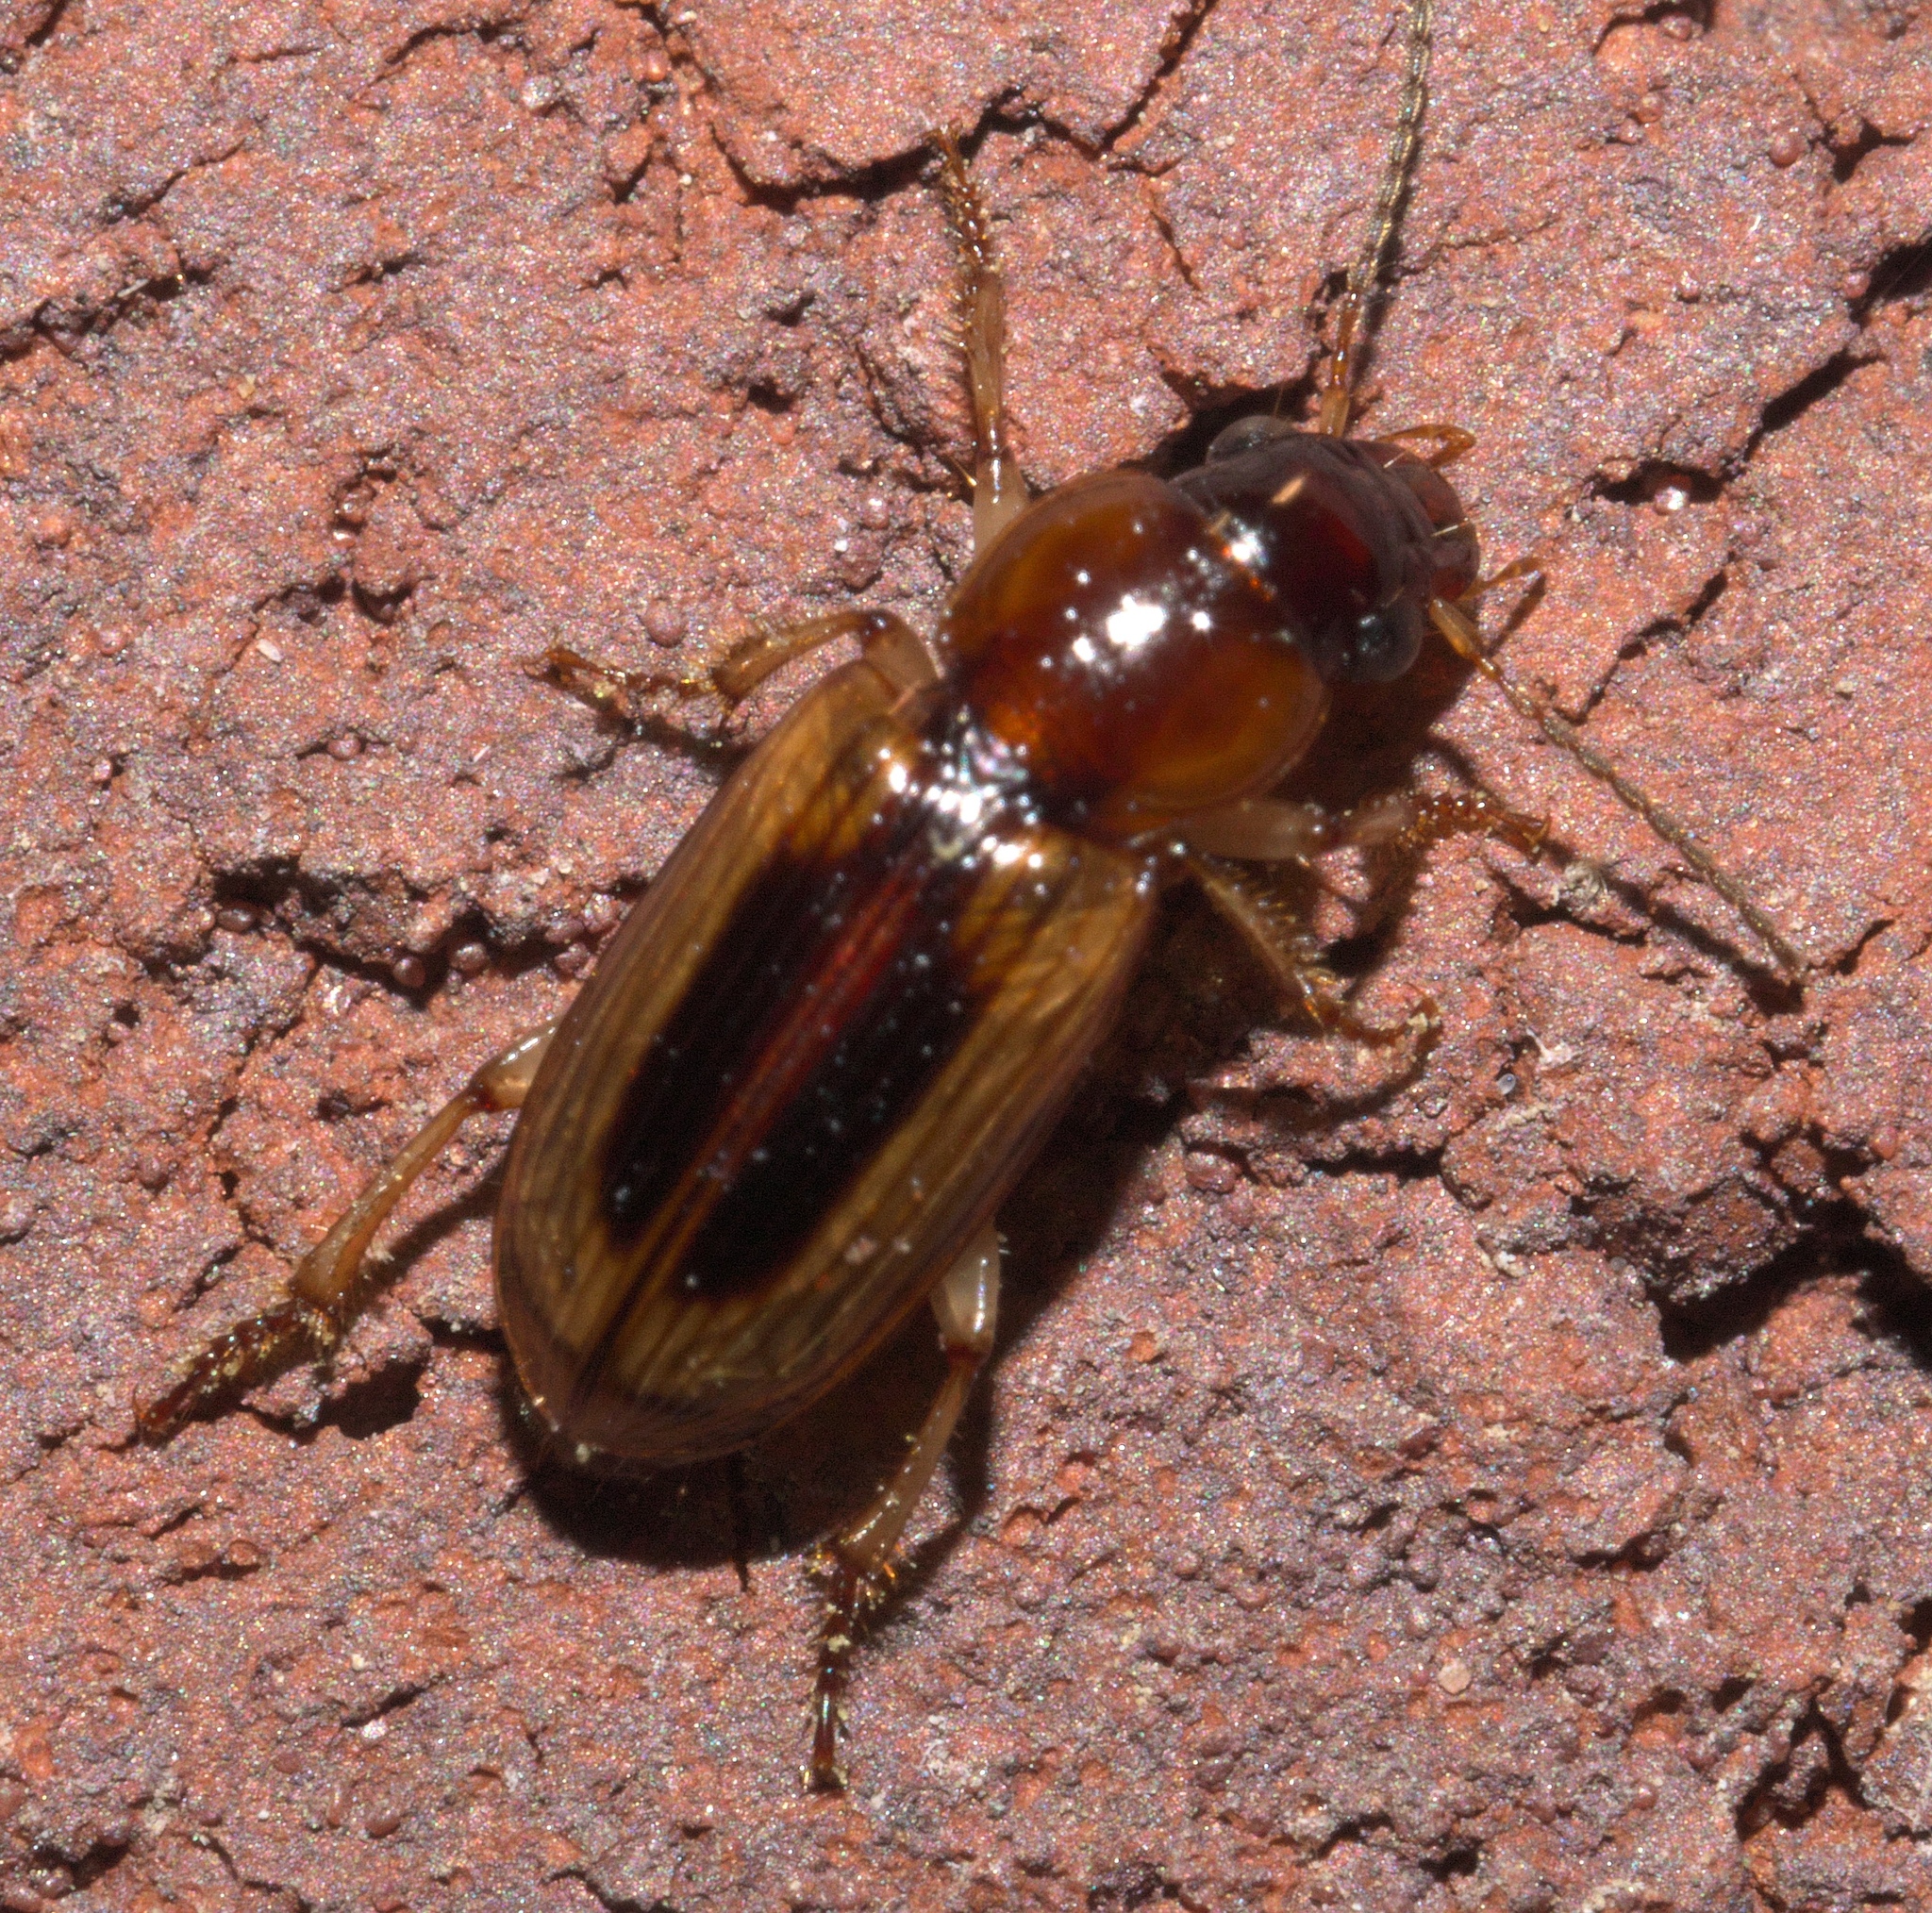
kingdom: Animalia
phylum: Arthropoda
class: Insecta
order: Coleoptera
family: Carabidae
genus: Stenolophus
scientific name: Stenolophus lecontei
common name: Leconte's seedcorn beetle
